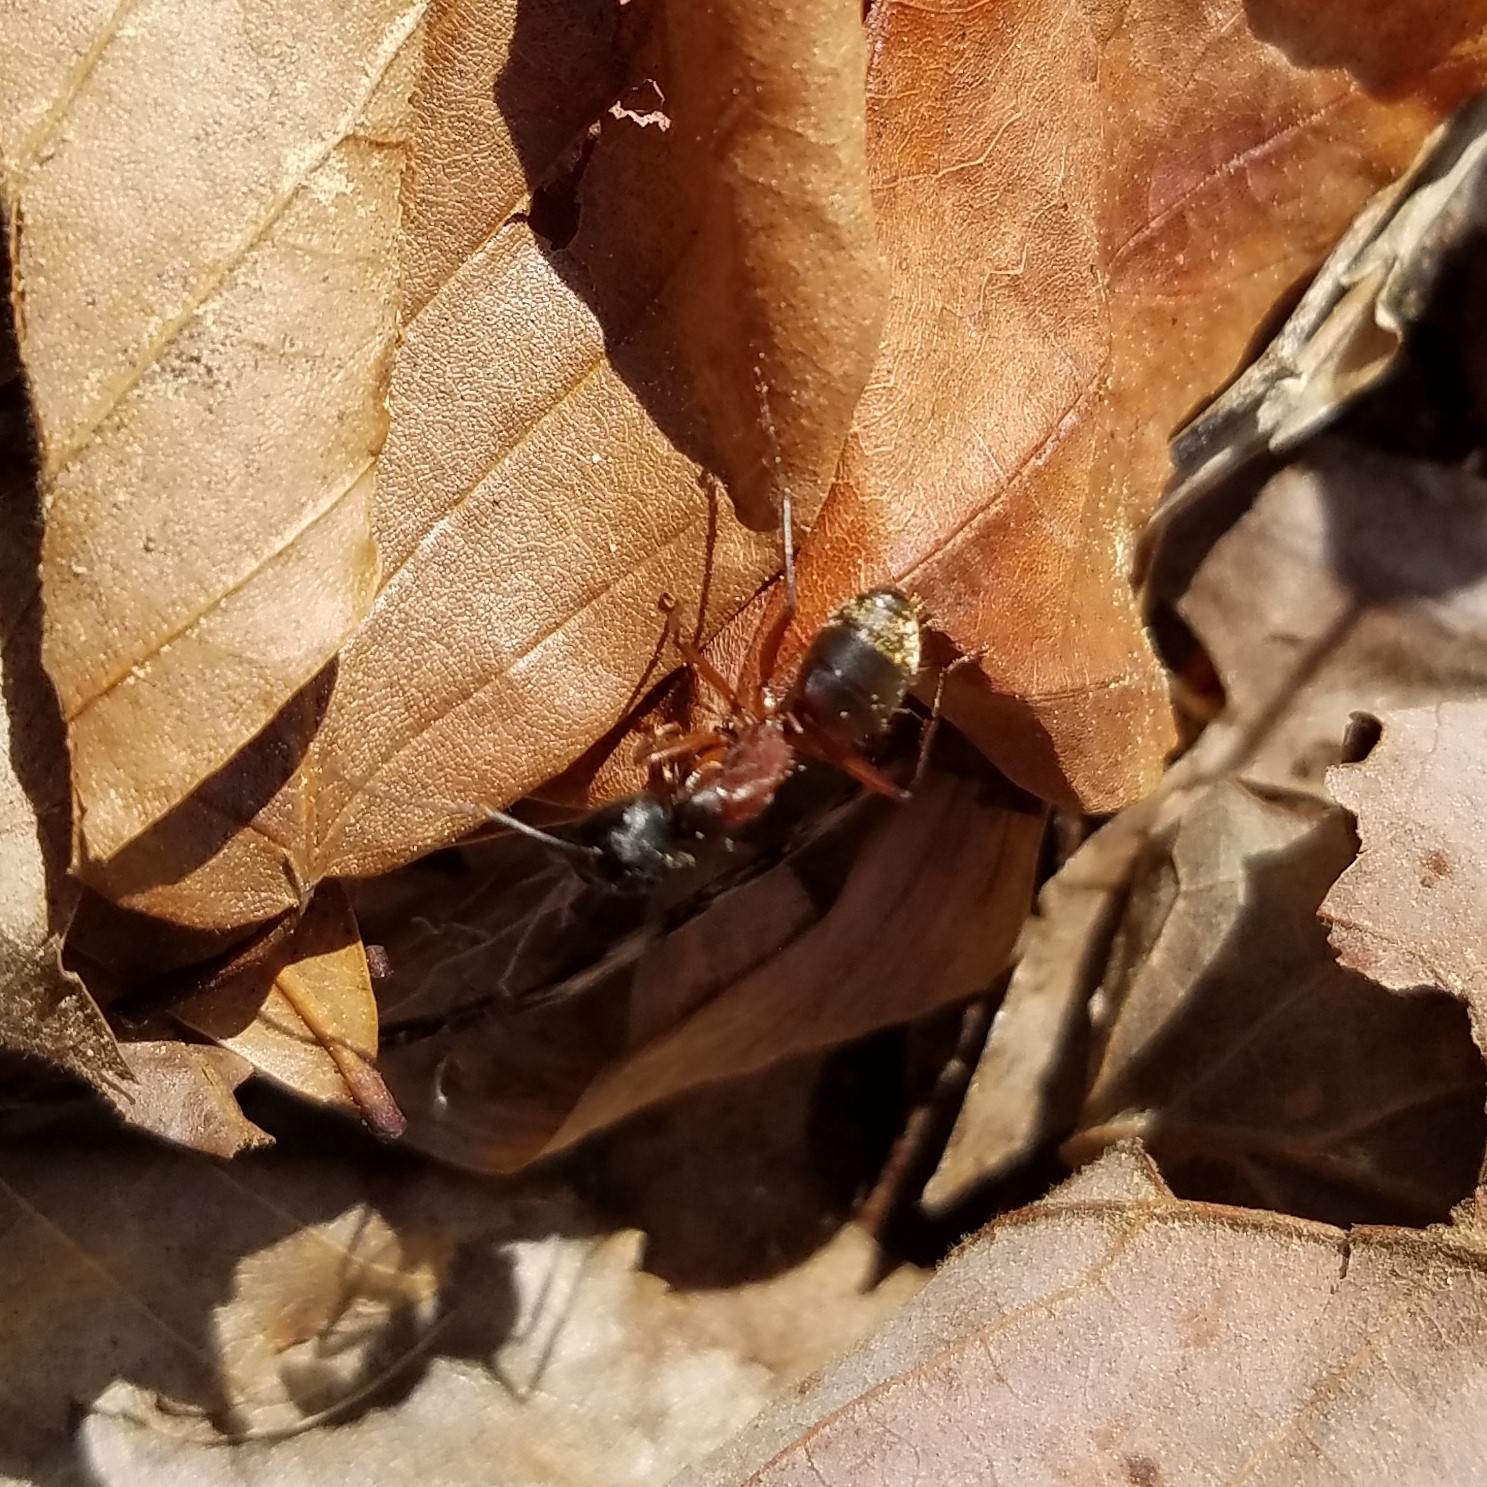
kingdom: Animalia
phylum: Arthropoda
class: Insecta
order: Hymenoptera
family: Formicidae
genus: Camponotus
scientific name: Camponotus chromaiodes
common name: Red carpenter ant
